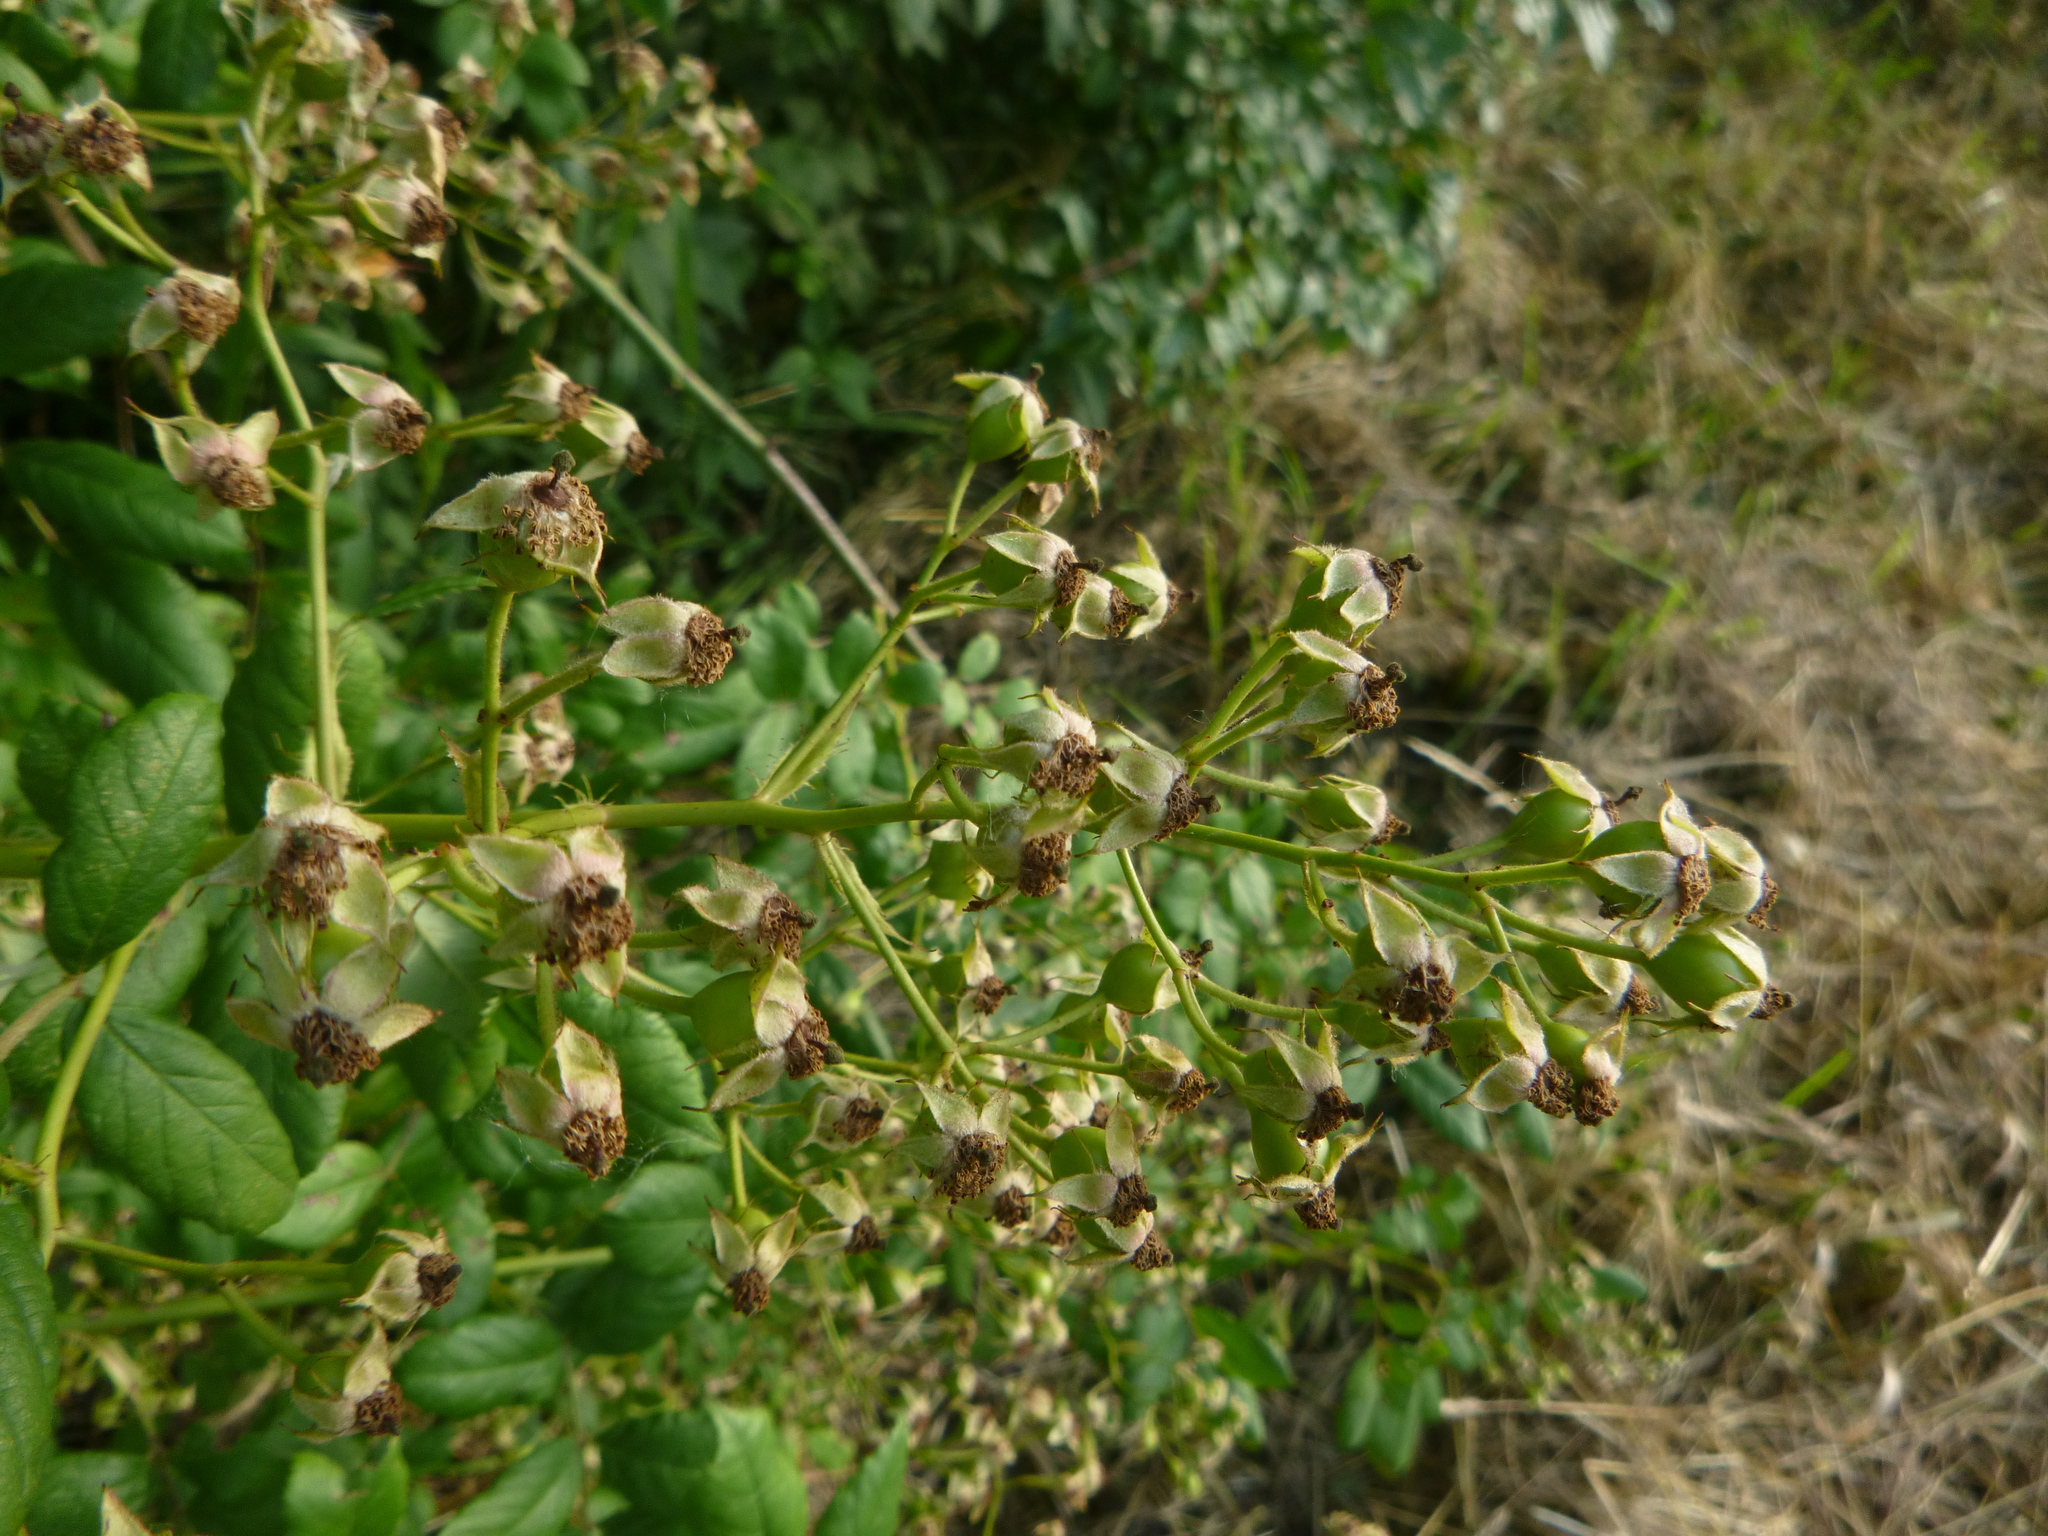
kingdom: Plantae
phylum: Tracheophyta
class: Magnoliopsida
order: Rosales
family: Rosaceae
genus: Rosa
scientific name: Rosa multiflora
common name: Multiflora rose
